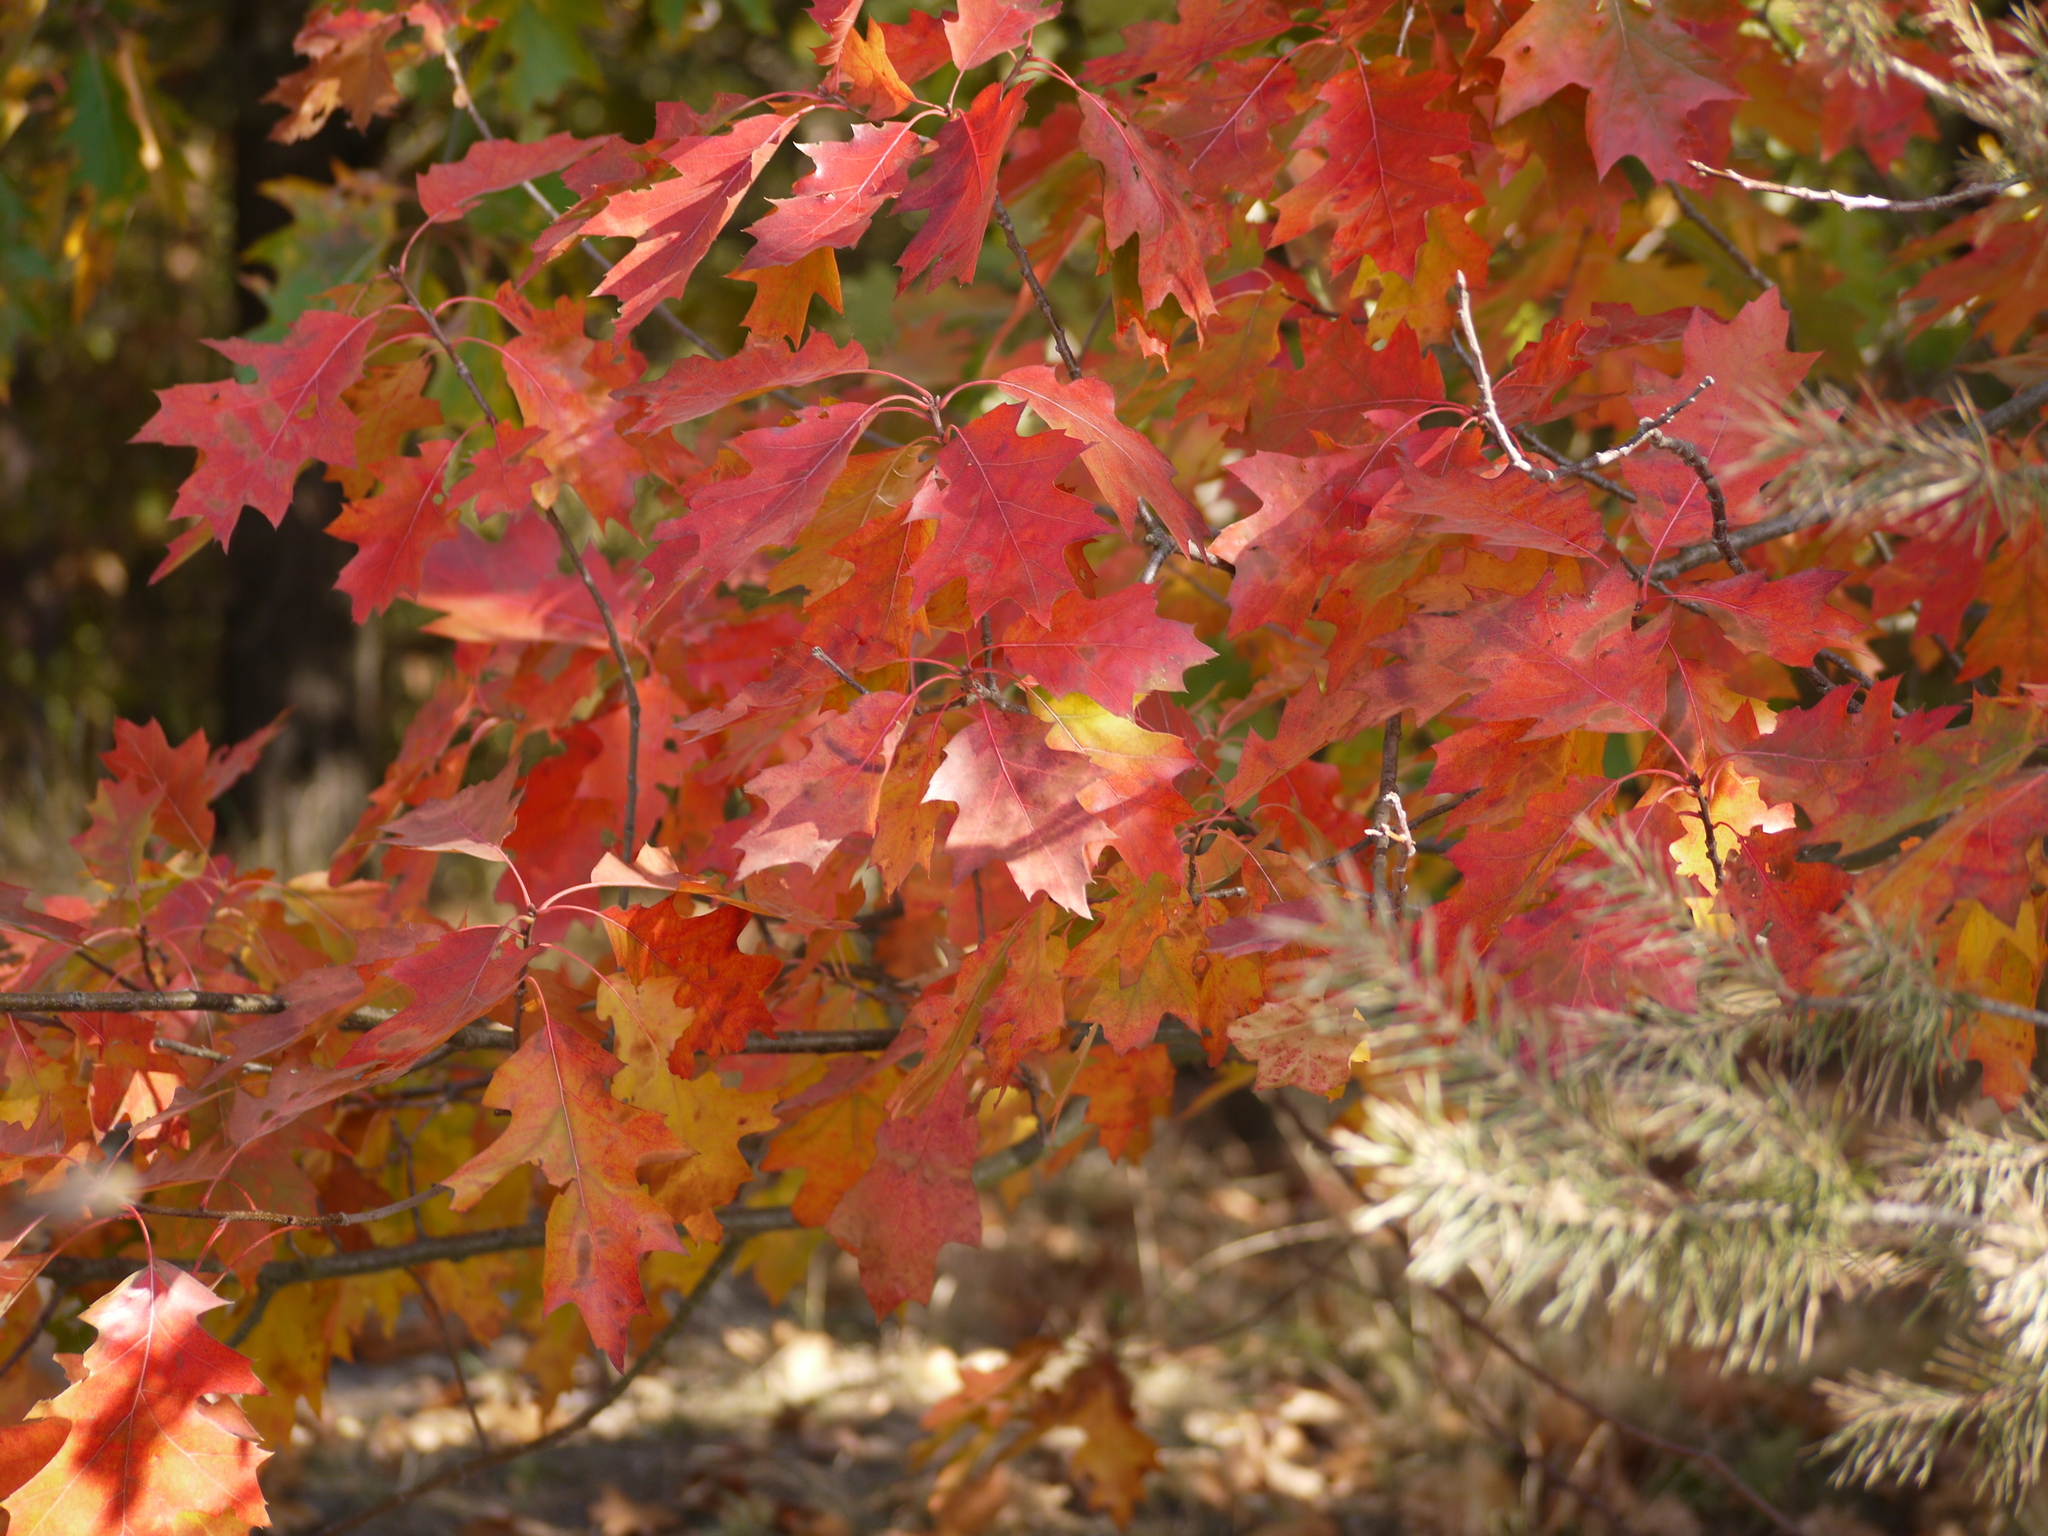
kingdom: Plantae
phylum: Tracheophyta
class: Magnoliopsida
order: Fagales
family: Fagaceae
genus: Quercus
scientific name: Quercus rubra
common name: Red oak
